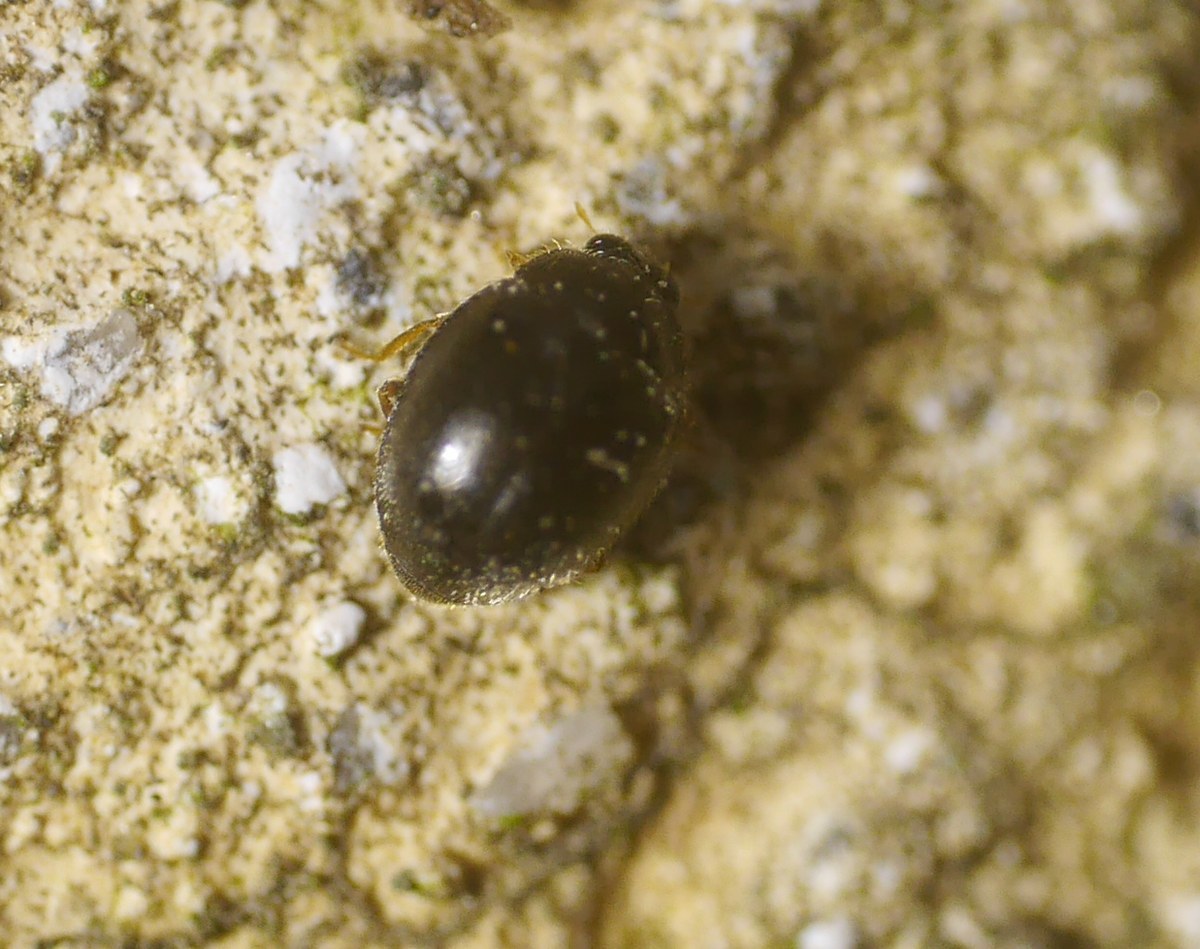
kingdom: Animalia
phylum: Arthropoda
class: Insecta
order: Coleoptera
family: Coccinellidae
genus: Stethorus
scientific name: Stethorus pusillus
